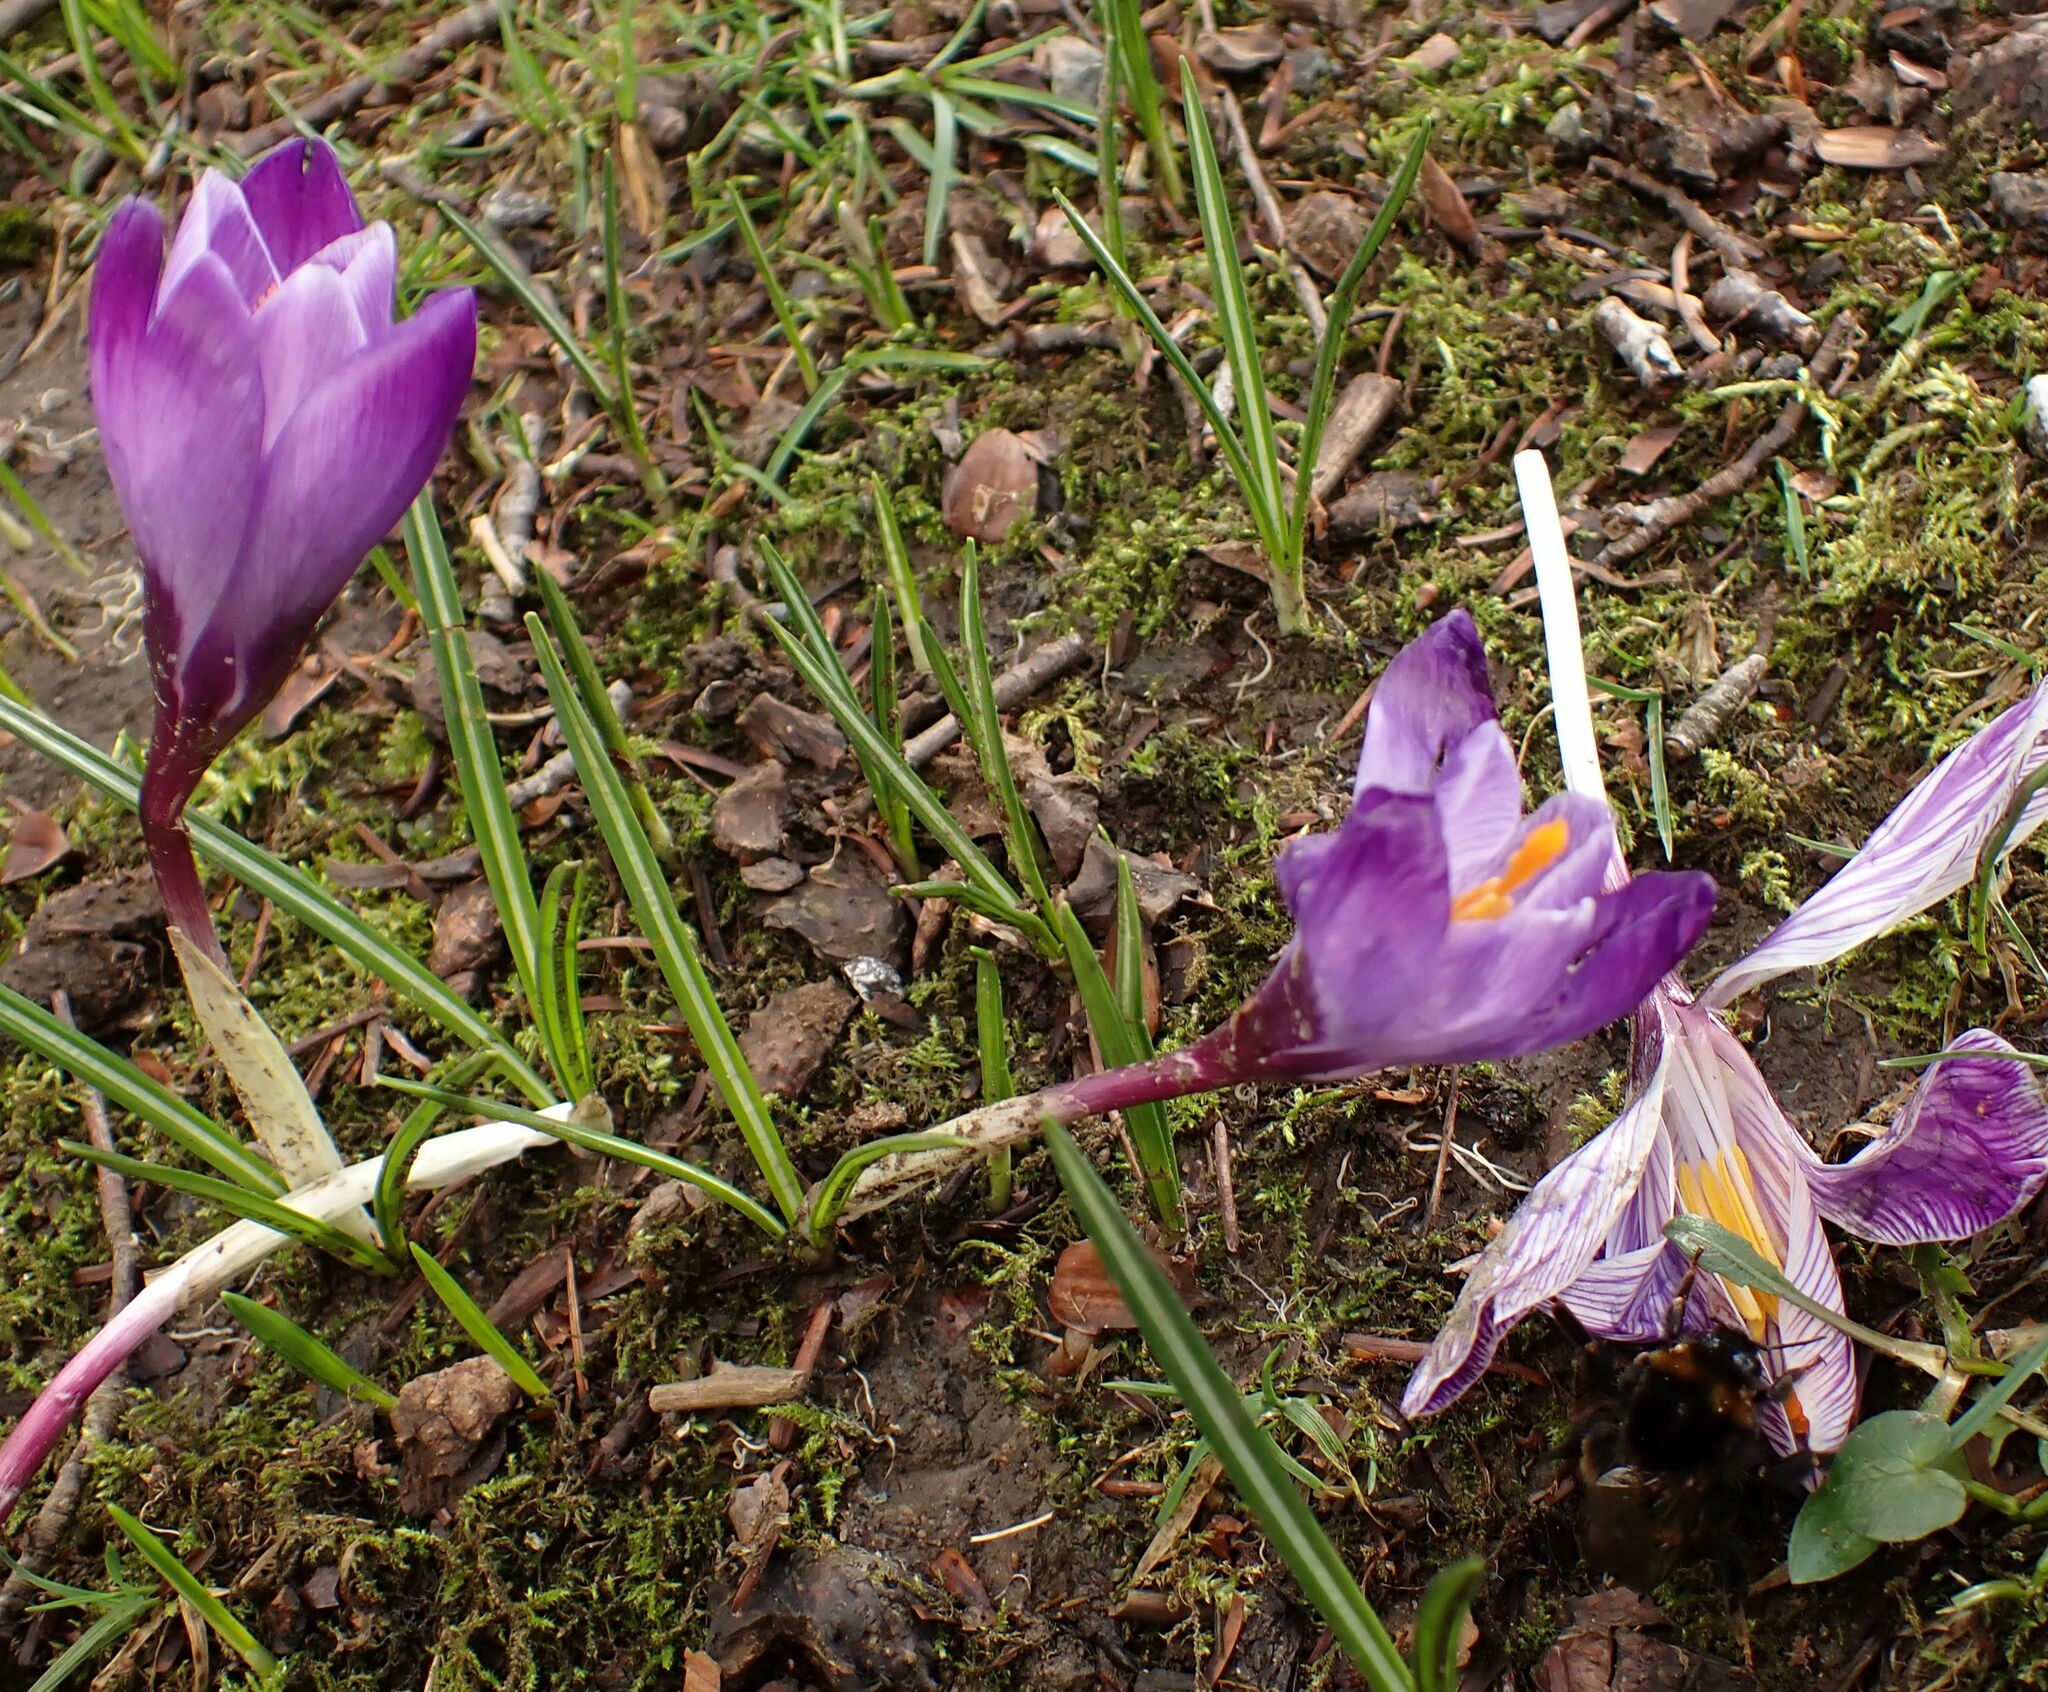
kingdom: Plantae
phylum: Tracheophyta
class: Liliopsida
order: Asparagales
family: Iridaceae
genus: Crocus
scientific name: Crocus neapolitanus
